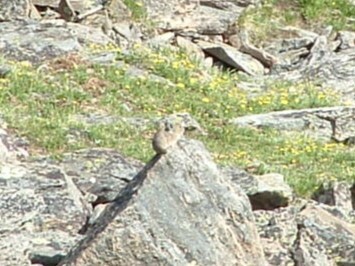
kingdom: Animalia
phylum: Chordata
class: Mammalia
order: Lagomorpha
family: Ochotonidae
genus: Ochotona
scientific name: Ochotona princeps
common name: American pika
